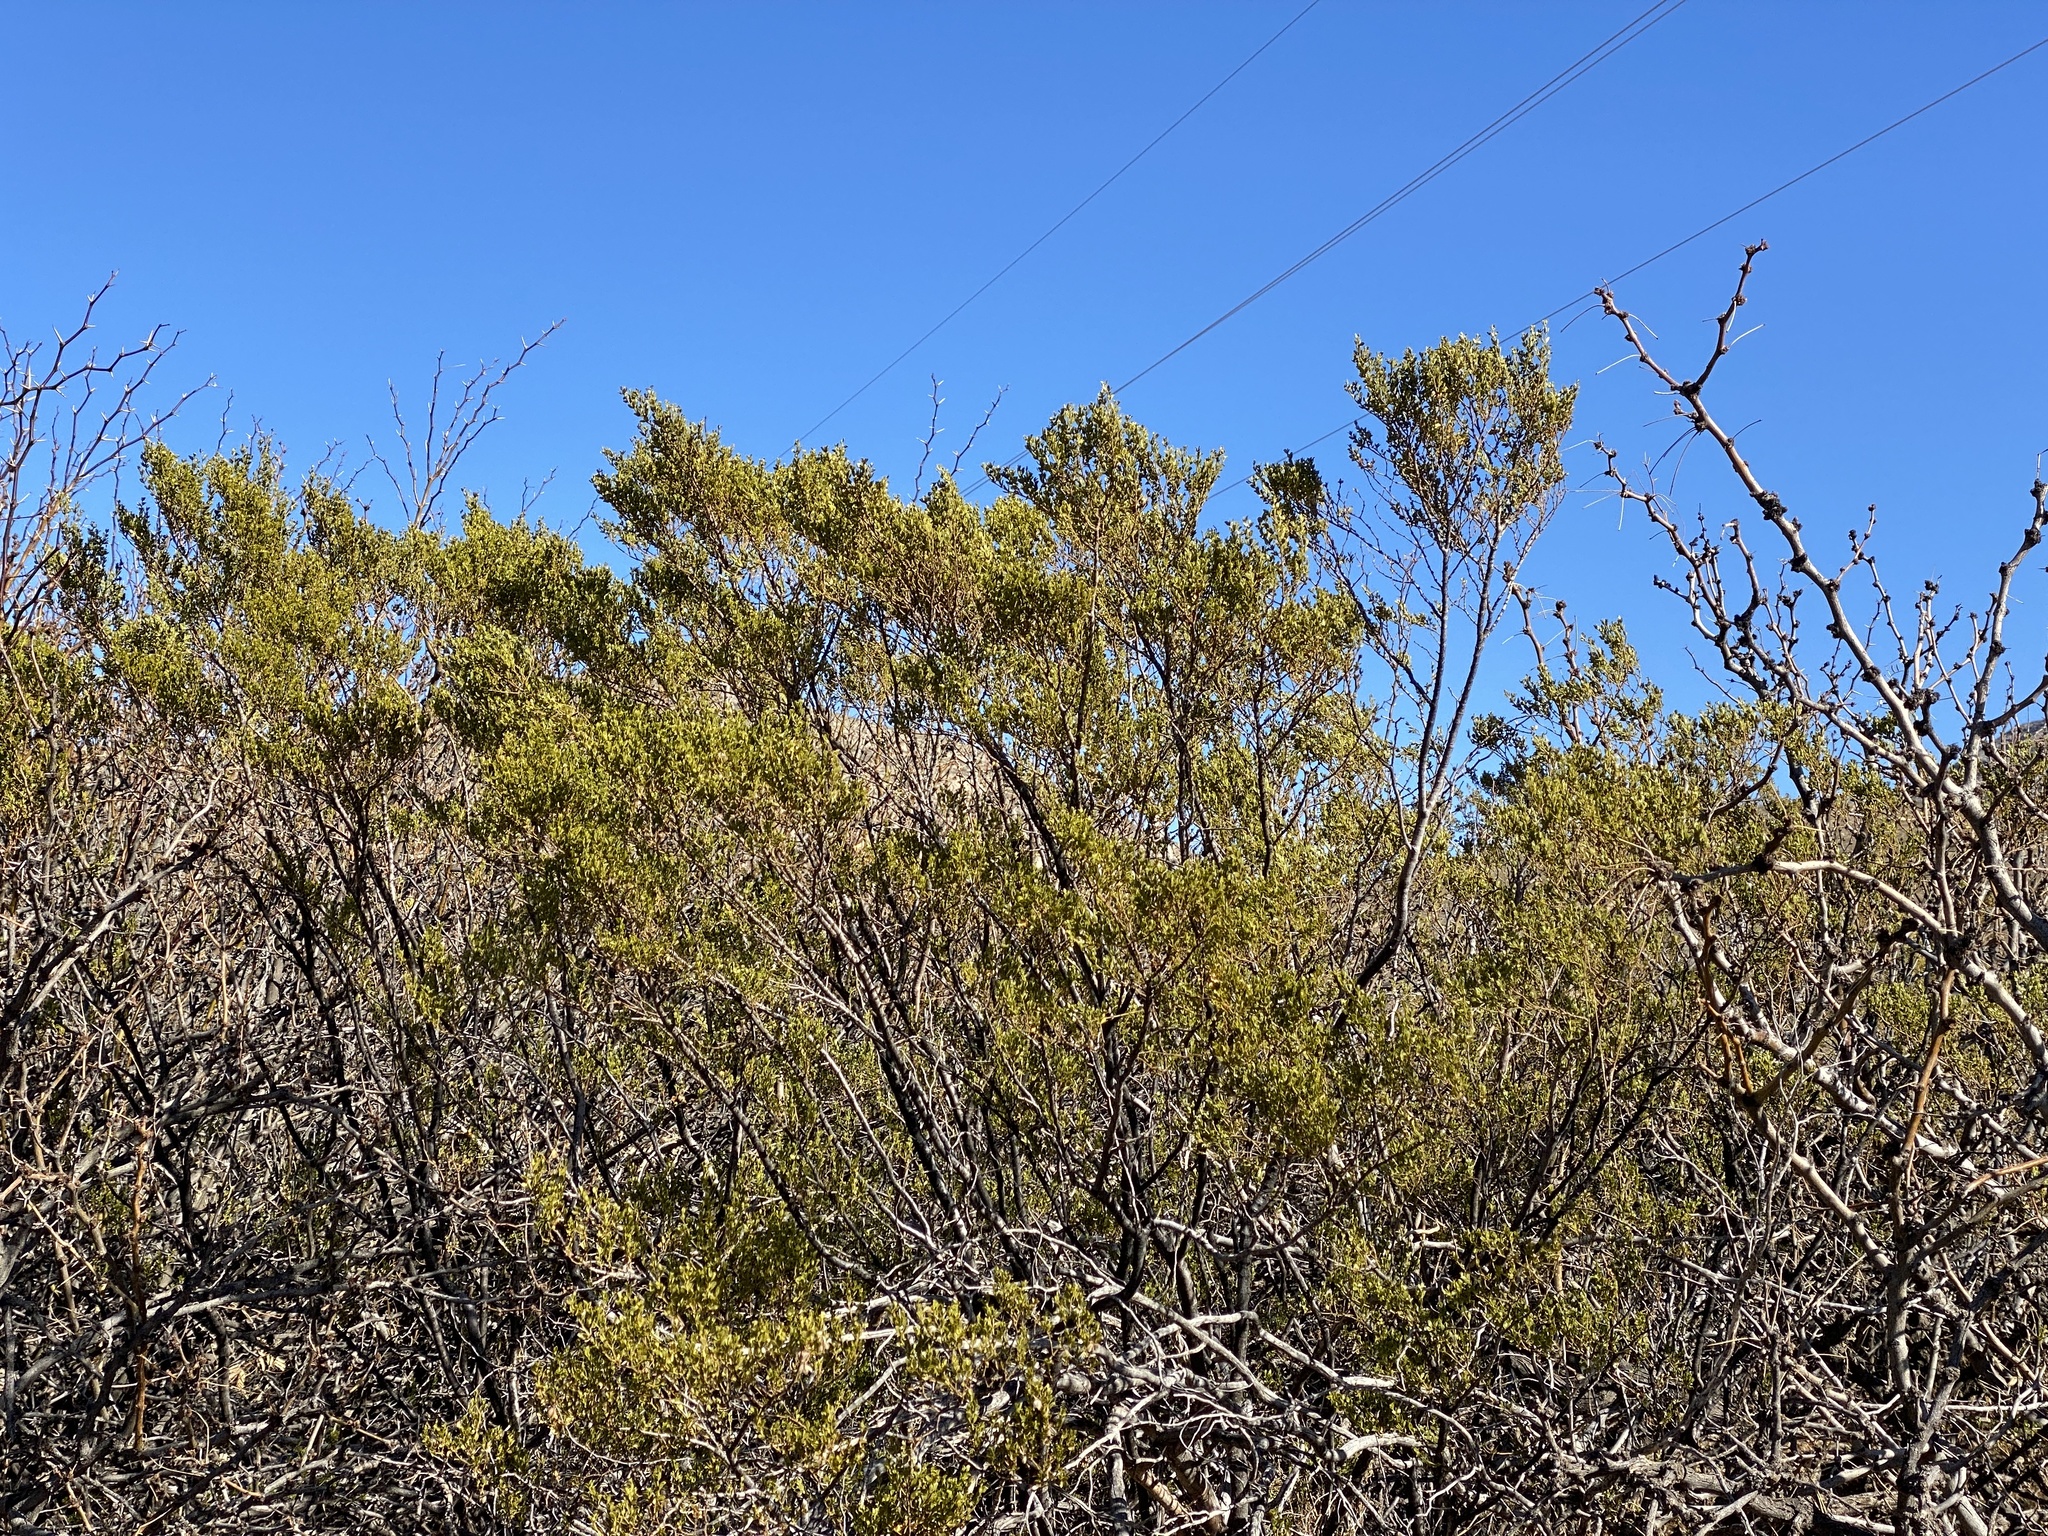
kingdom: Plantae
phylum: Tracheophyta
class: Magnoliopsida
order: Zygophyllales
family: Zygophyllaceae
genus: Larrea
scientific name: Larrea tridentata
